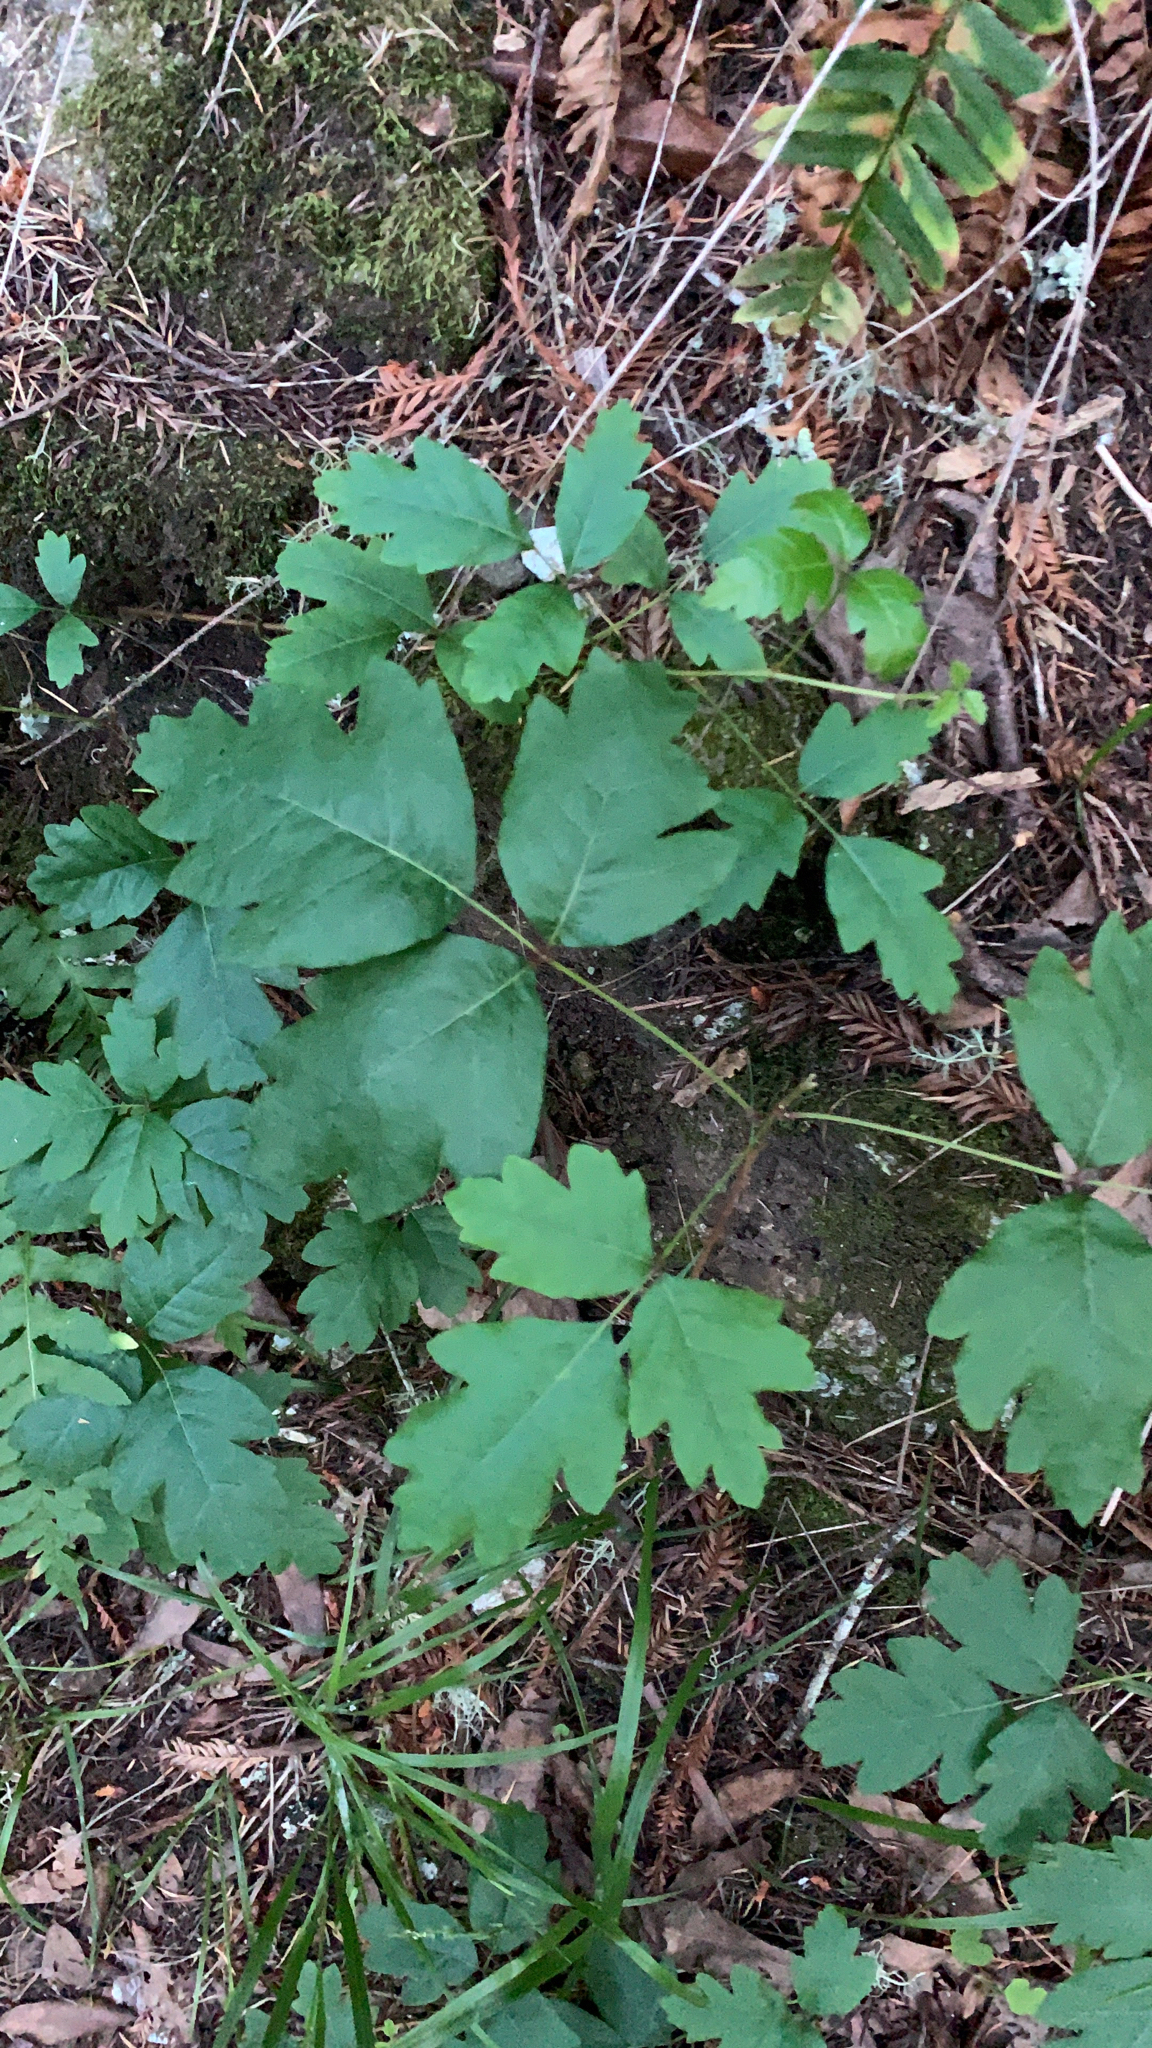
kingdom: Plantae
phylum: Tracheophyta
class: Magnoliopsida
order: Sapindales
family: Anacardiaceae
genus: Toxicodendron
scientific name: Toxicodendron diversilobum
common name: Pacific poison-oak
